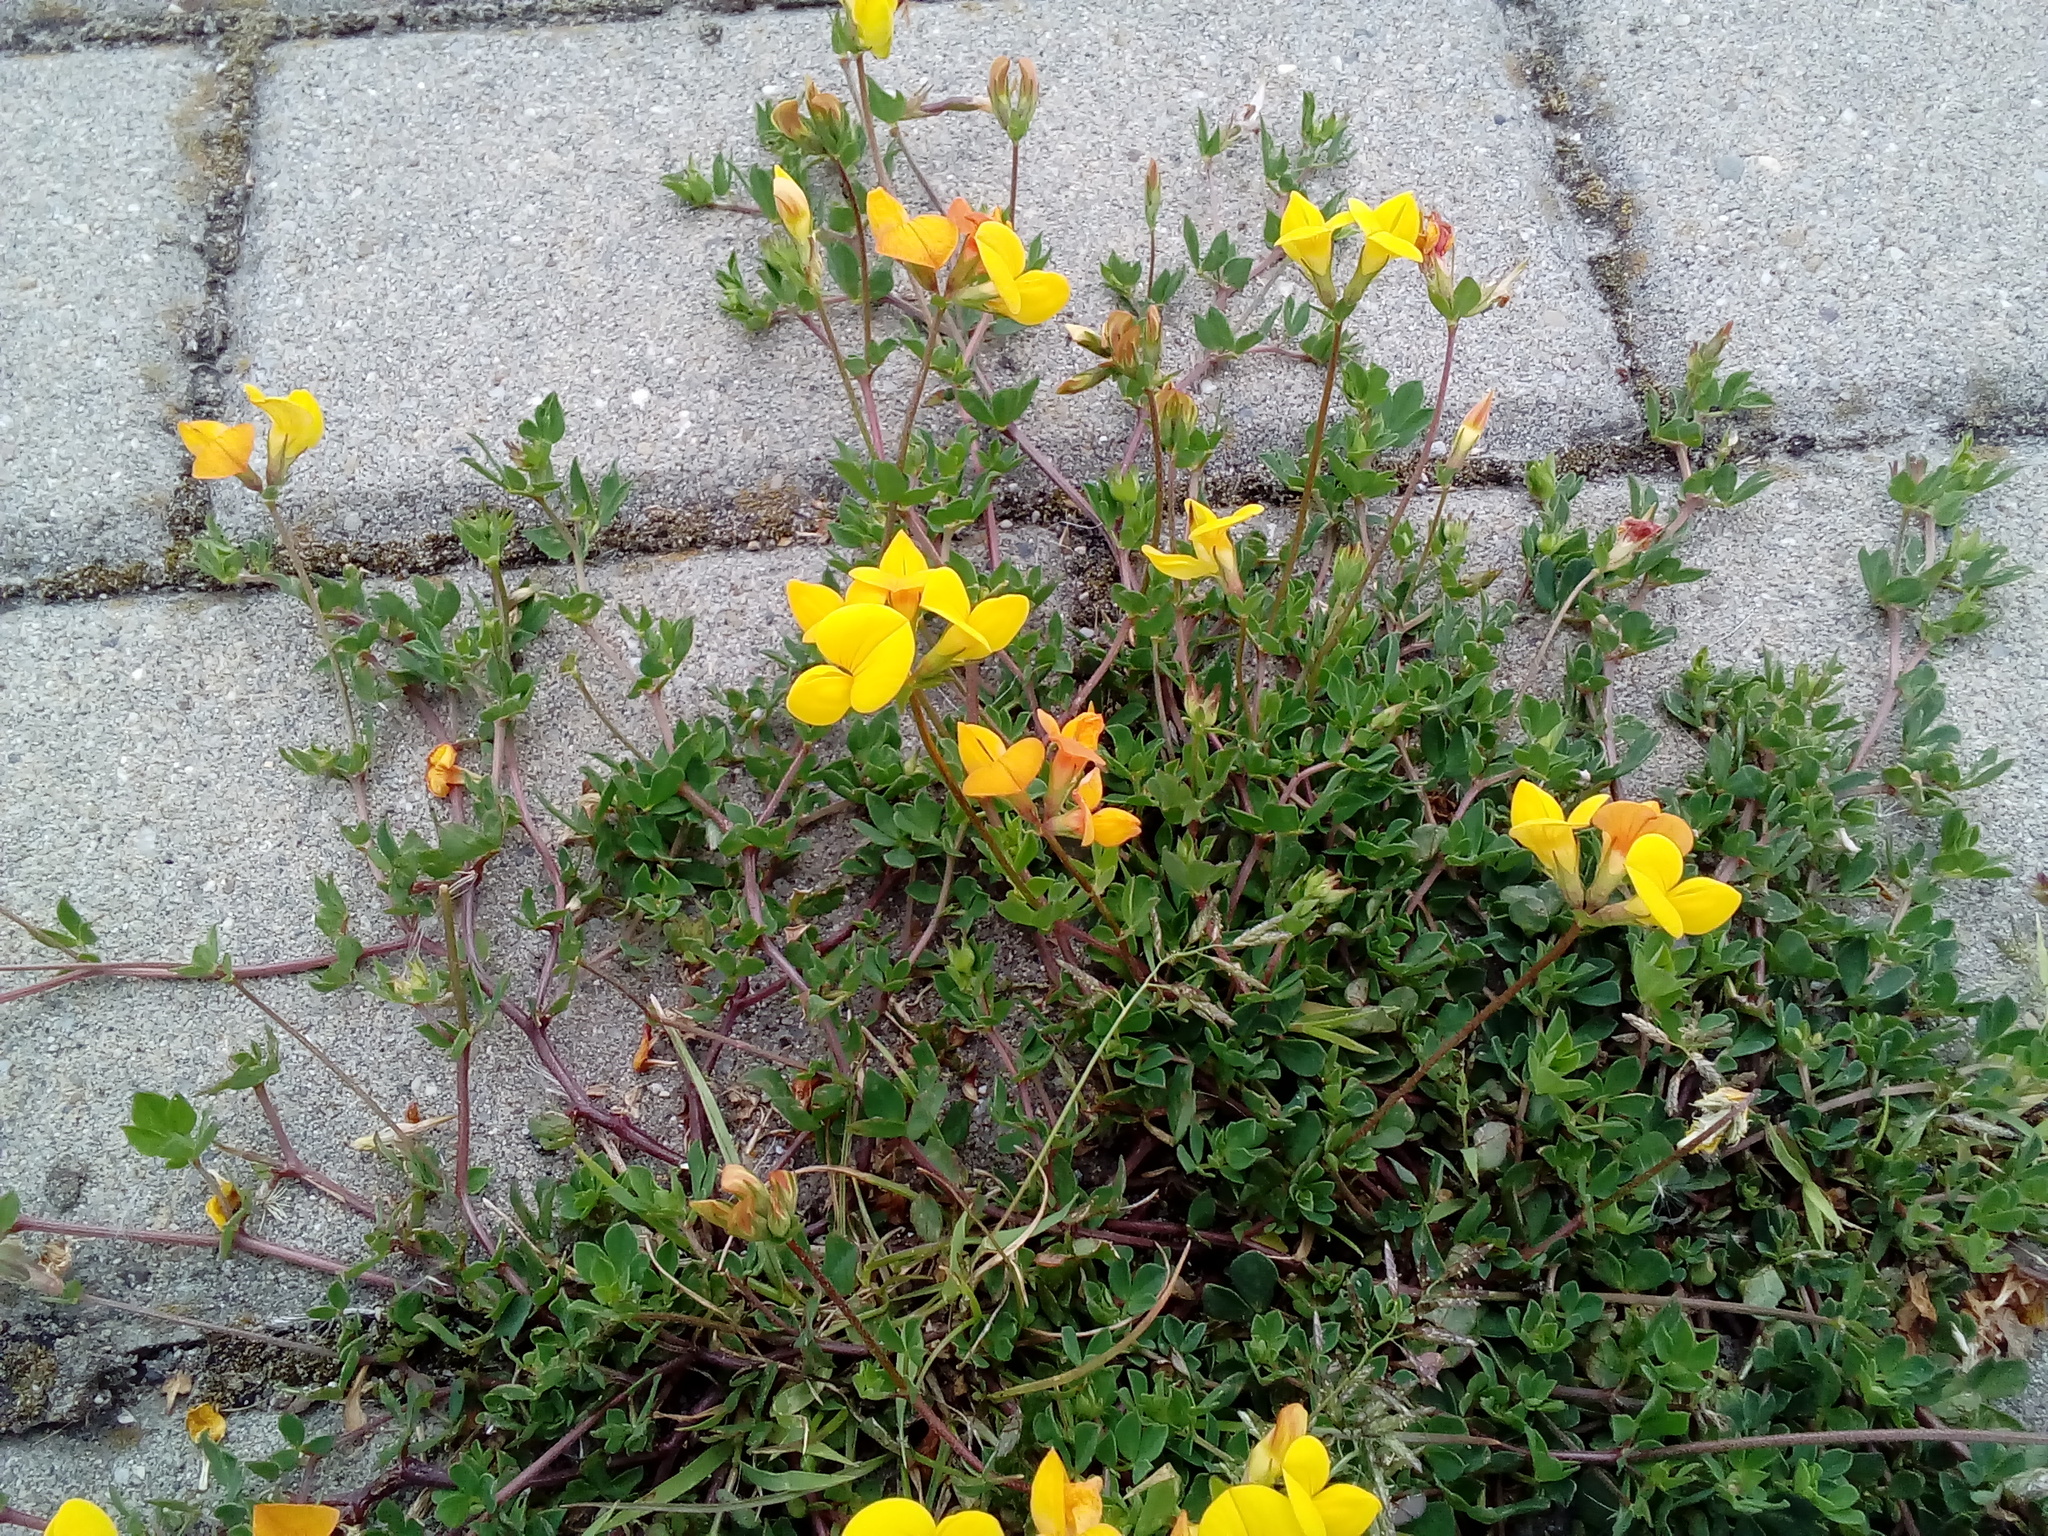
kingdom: Plantae
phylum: Tracheophyta
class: Magnoliopsida
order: Fabales
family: Fabaceae
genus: Lotus
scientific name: Lotus corniculatus
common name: Common bird's-foot-trefoil
